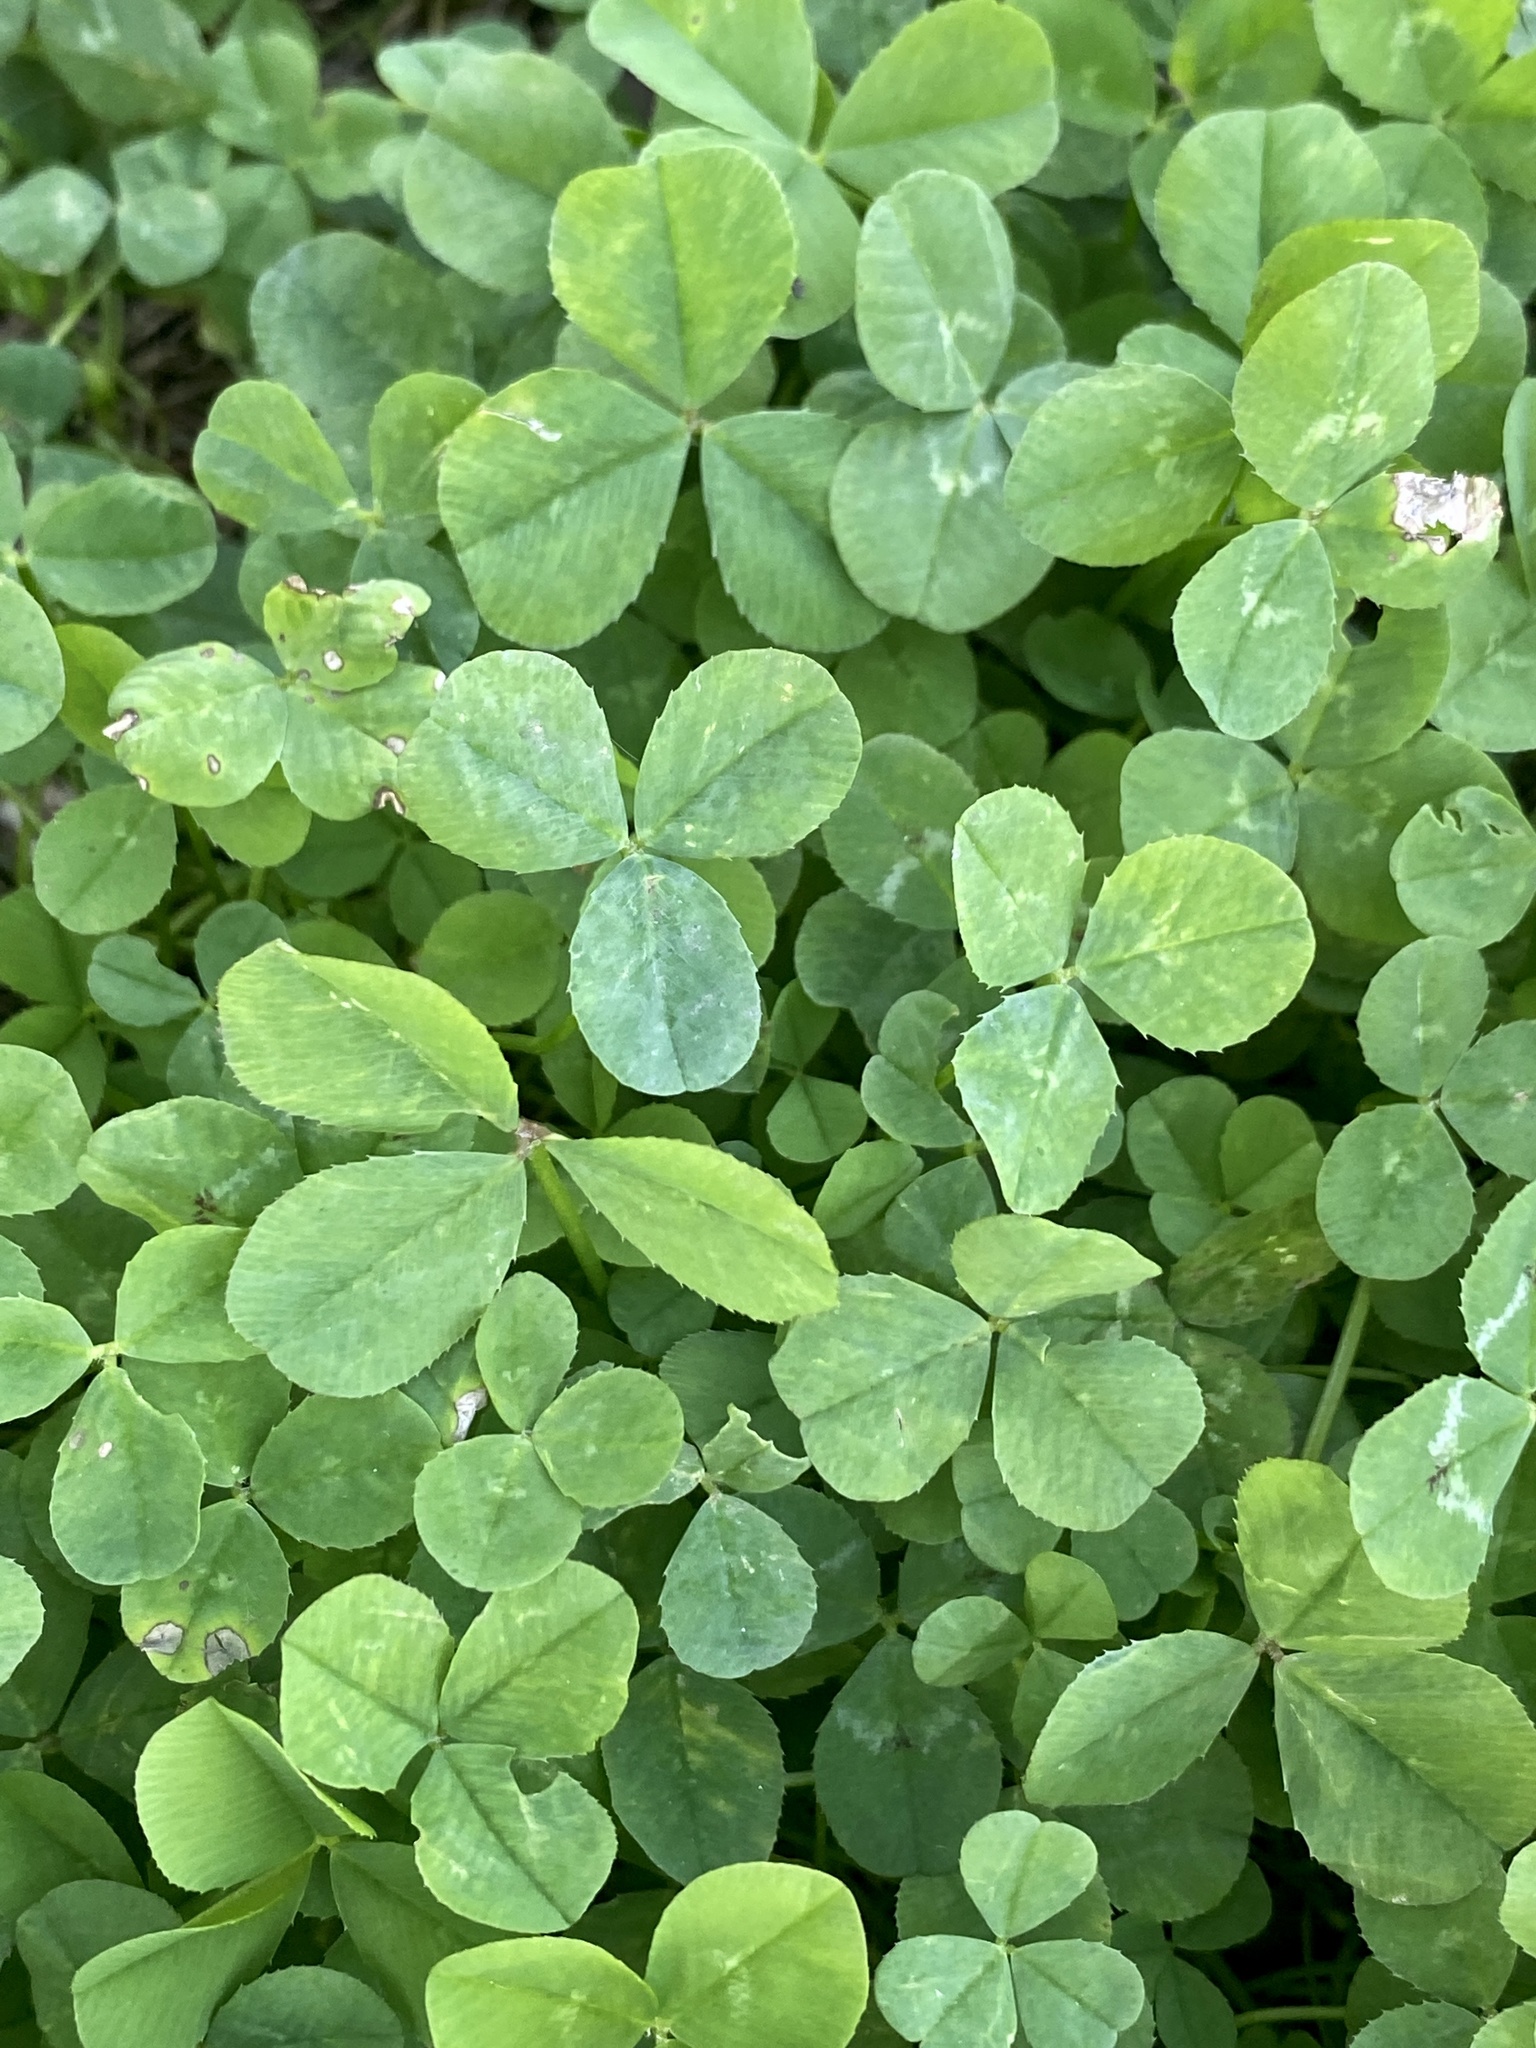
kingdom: Plantae
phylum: Tracheophyta
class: Magnoliopsida
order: Fabales
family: Fabaceae
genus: Trifolium
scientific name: Trifolium repens
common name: White clover
